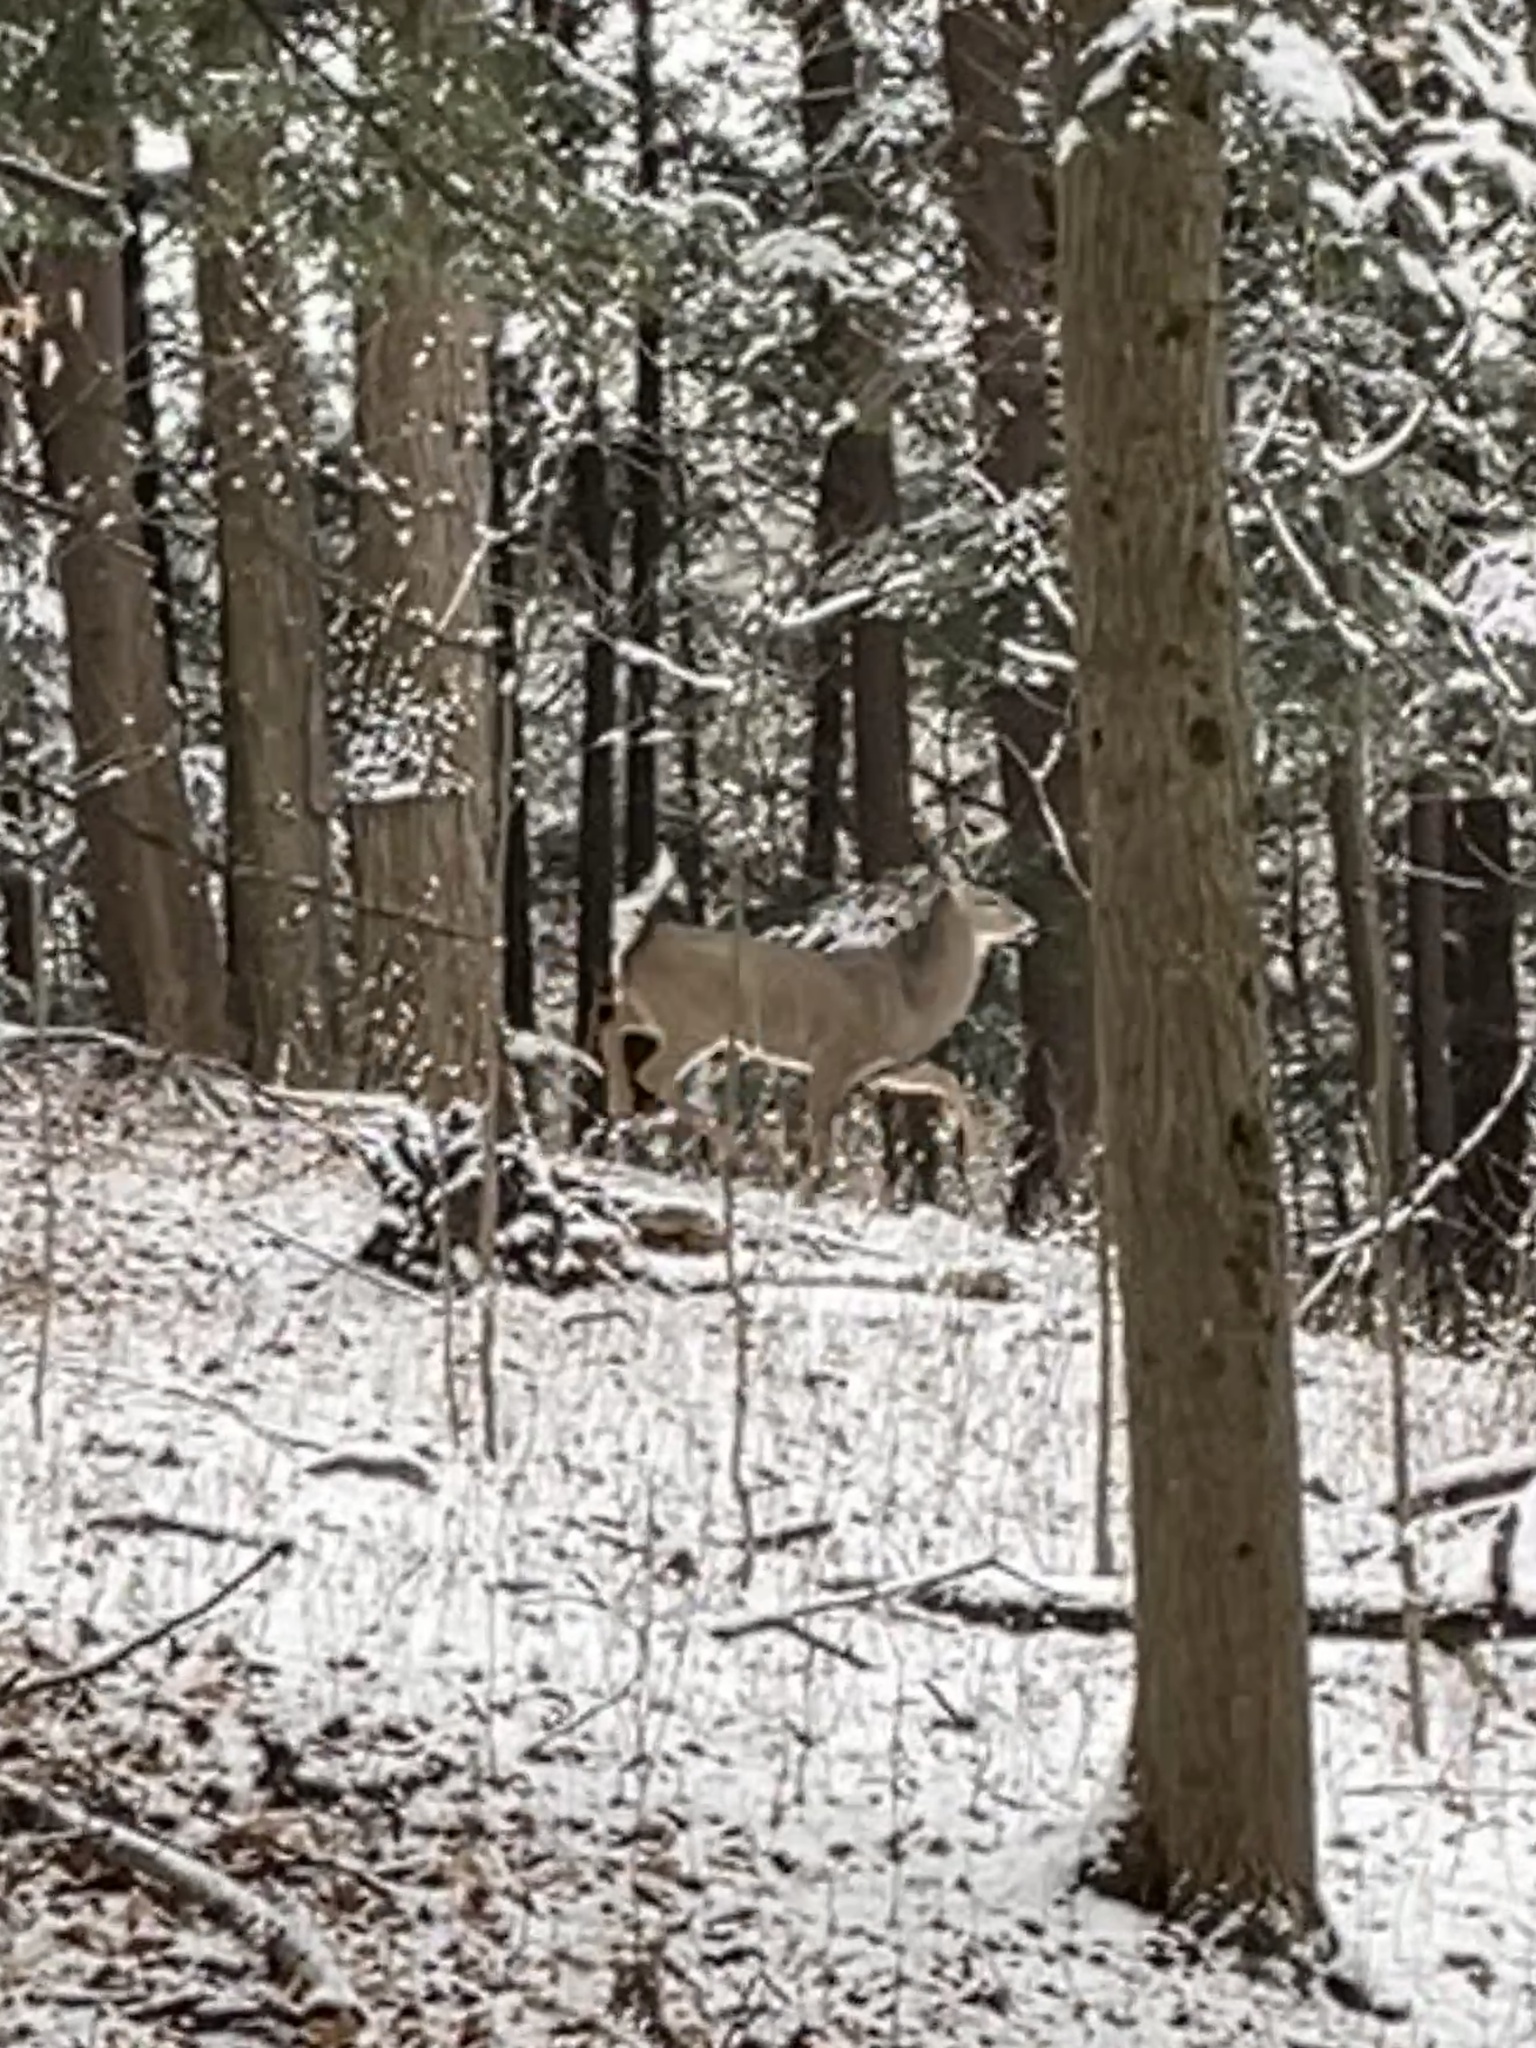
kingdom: Animalia
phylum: Chordata
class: Mammalia
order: Artiodactyla
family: Cervidae
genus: Odocoileus
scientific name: Odocoileus virginianus
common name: White-tailed deer
